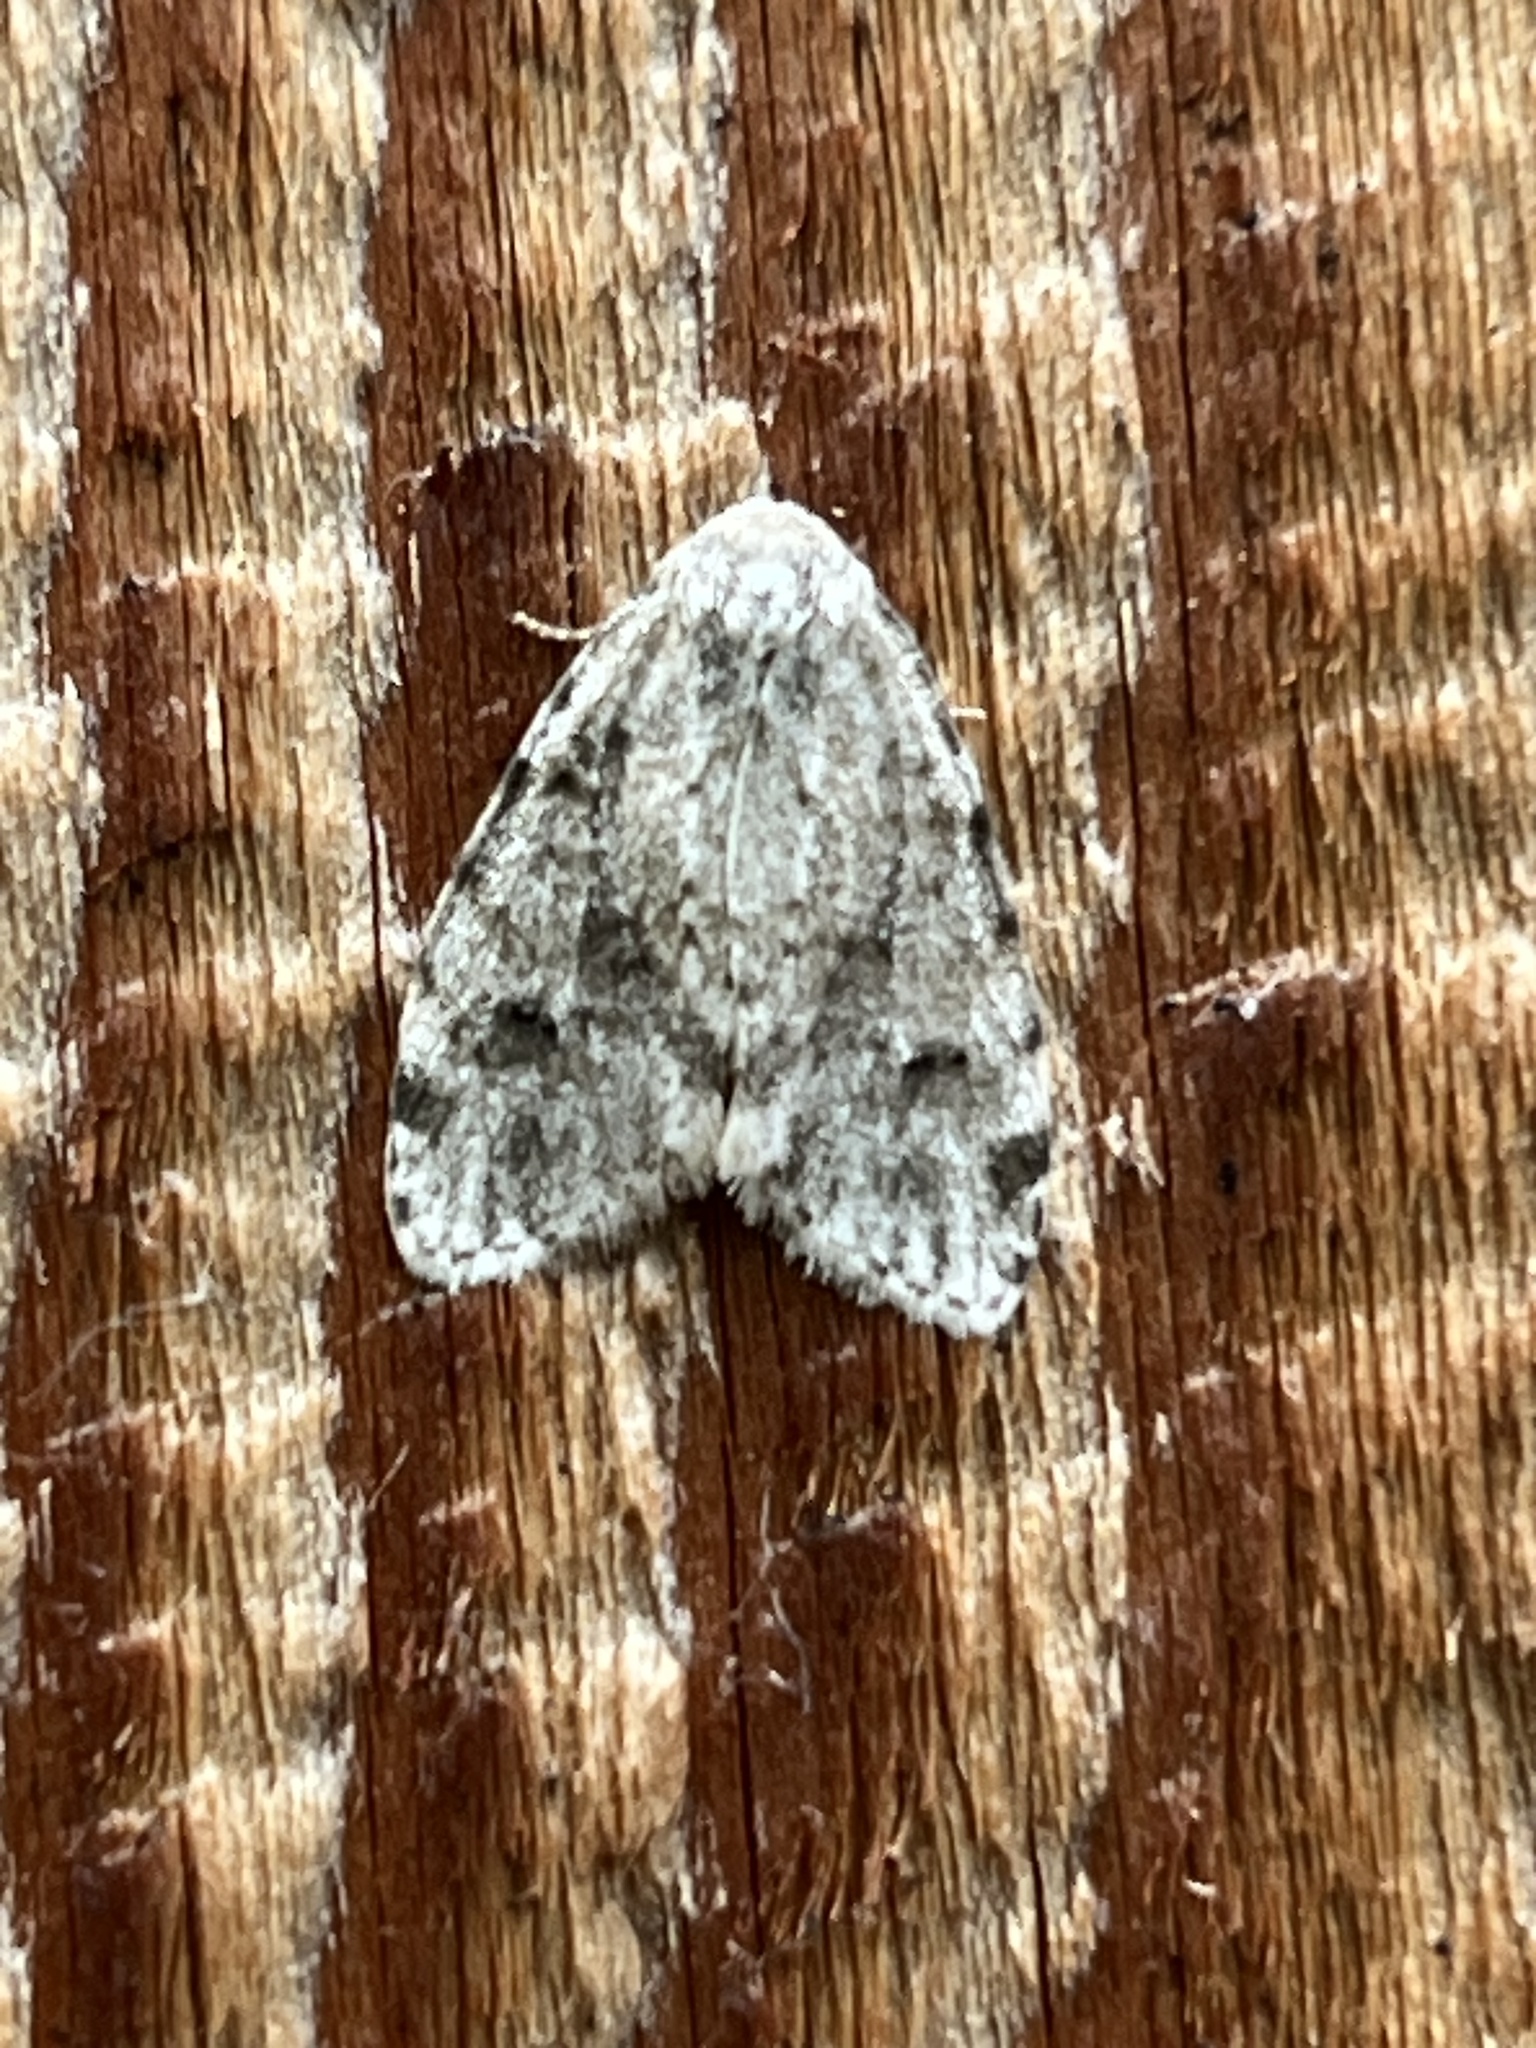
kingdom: Animalia
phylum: Arthropoda
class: Insecta
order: Lepidoptera
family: Erebidae
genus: Clemensia
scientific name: Clemensia albata
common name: Little white lichen moth
